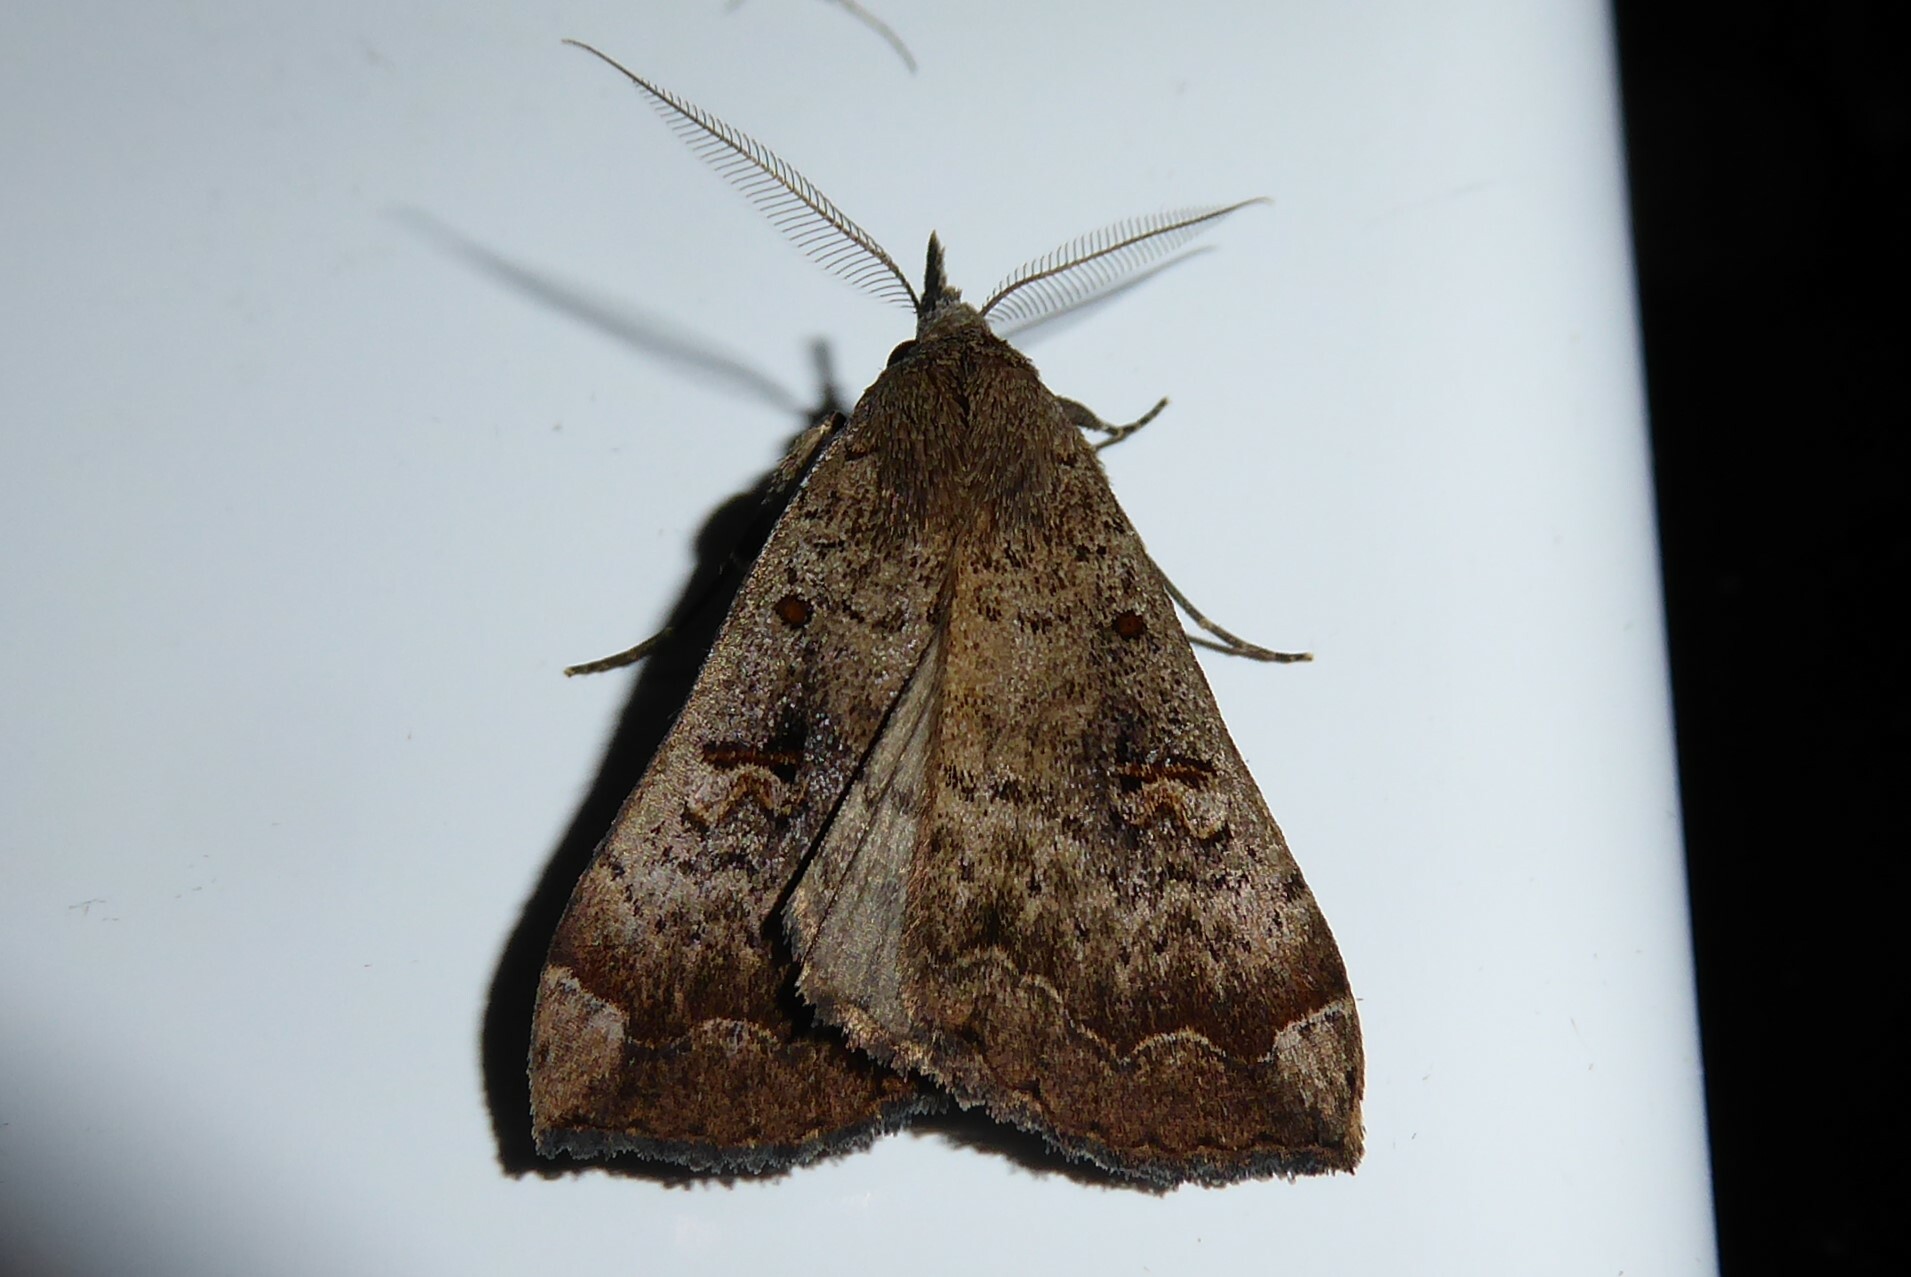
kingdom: Animalia
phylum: Arthropoda
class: Insecta
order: Lepidoptera
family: Erebidae
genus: Rhapsa
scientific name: Rhapsa scotosialis
